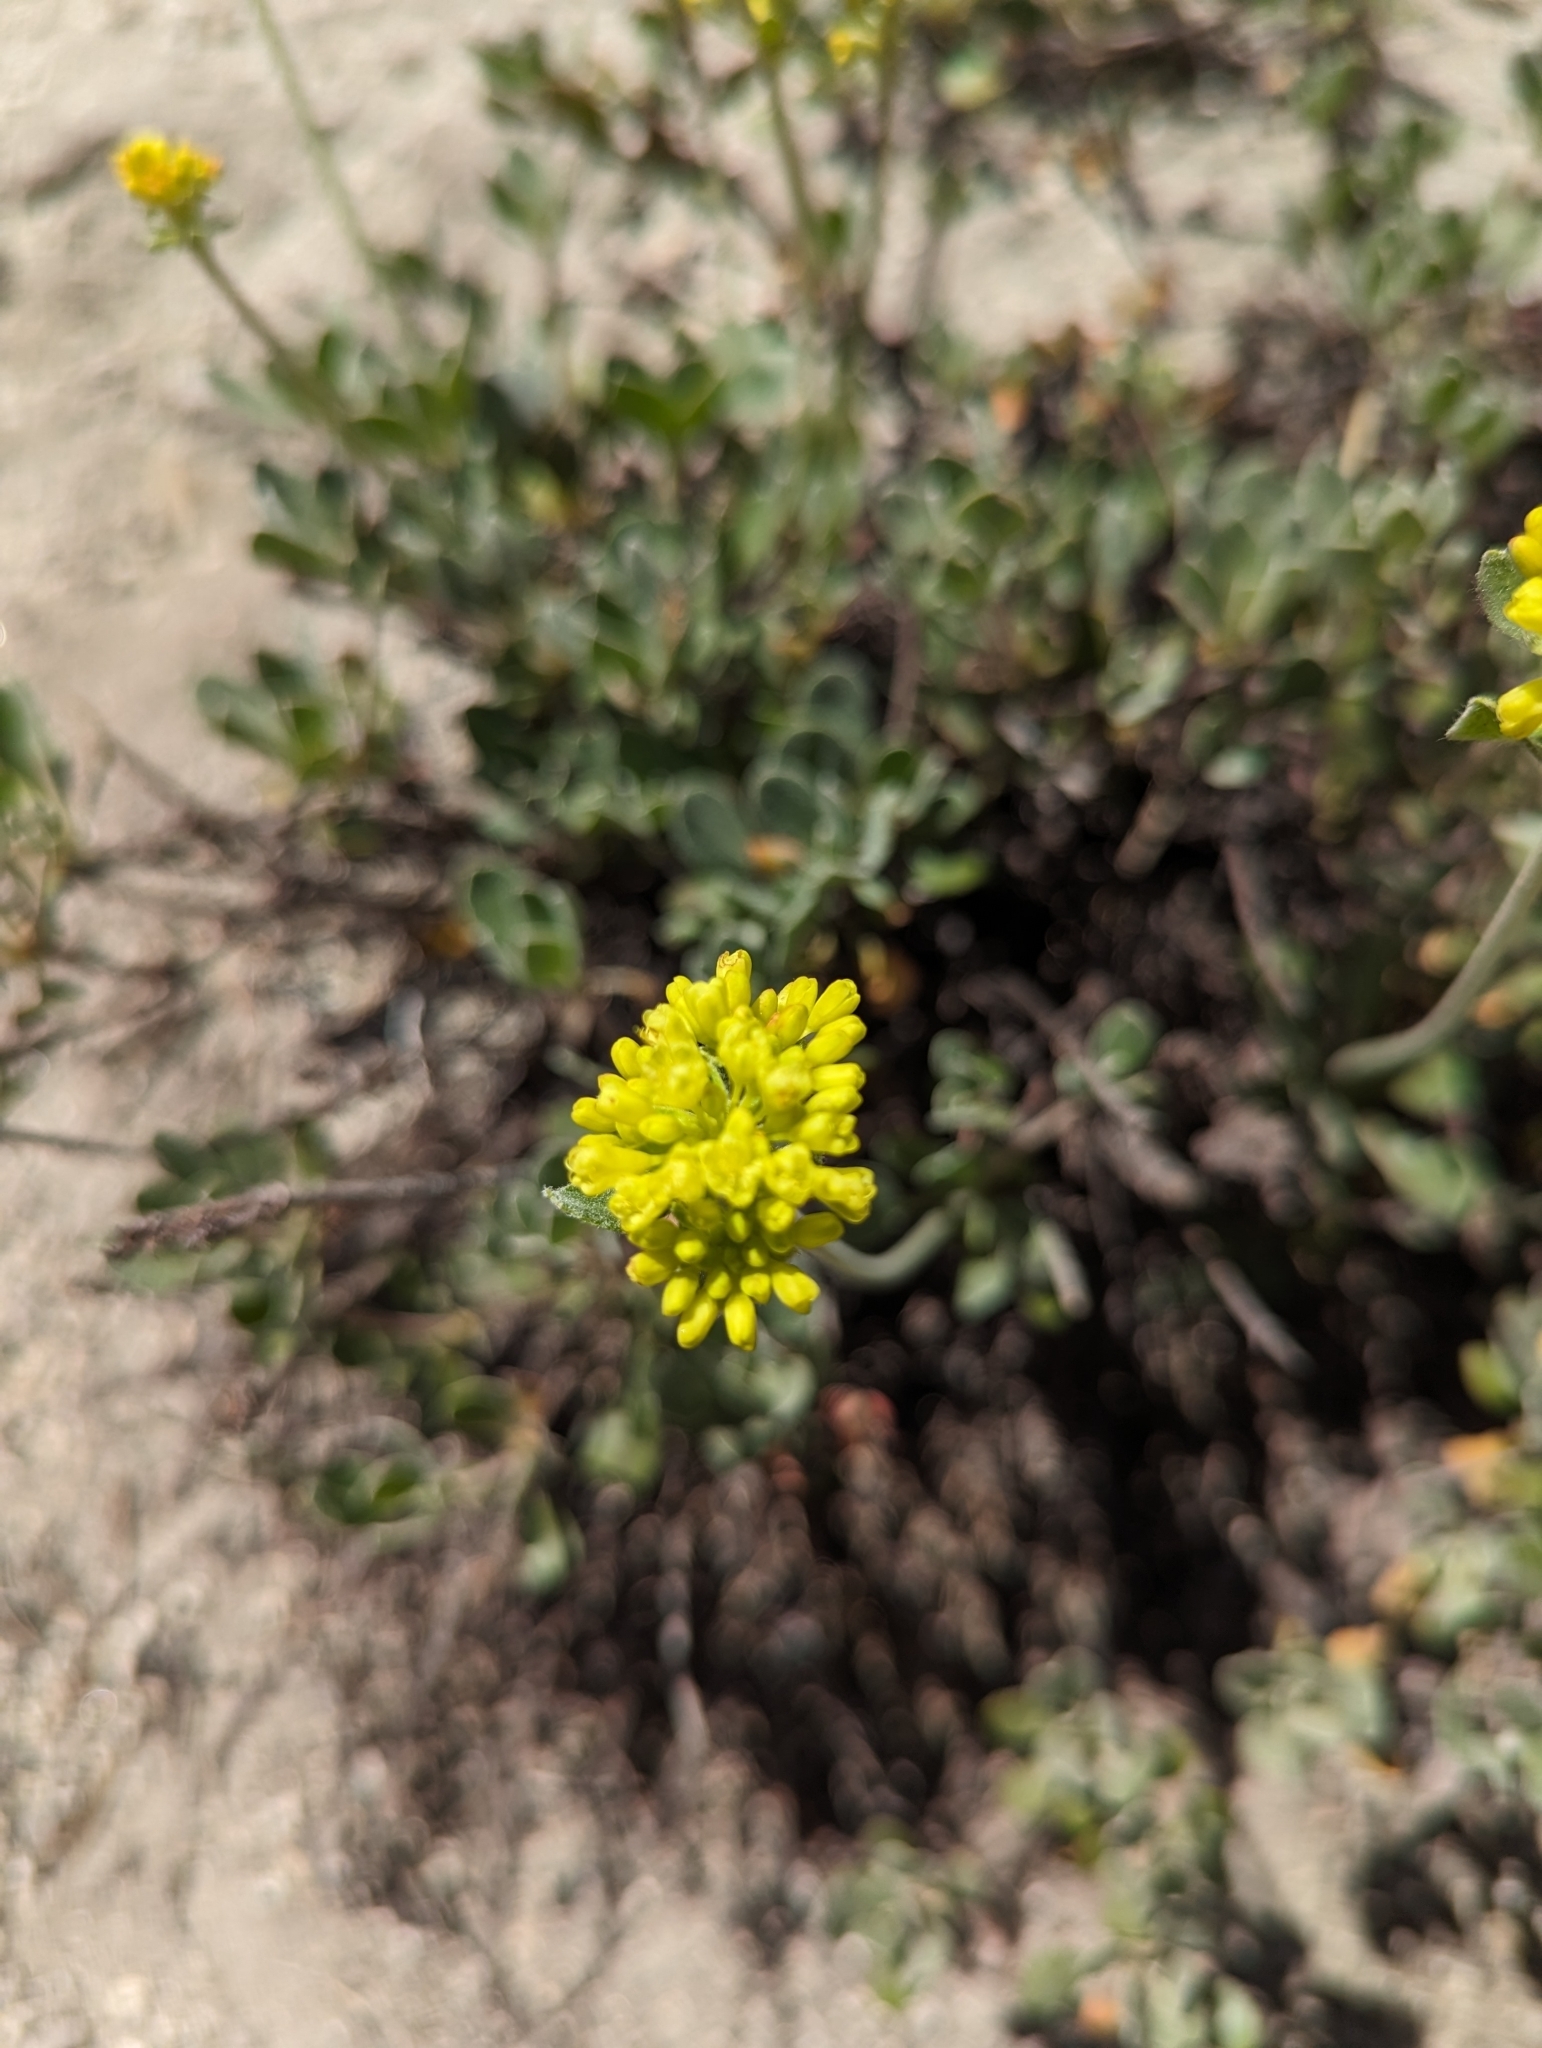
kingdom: Plantae
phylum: Tracheophyta
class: Magnoliopsida
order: Caryophyllales
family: Polygonaceae
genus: Eriogonum
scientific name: Eriogonum umbellatum
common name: Sulfur-buckwheat
